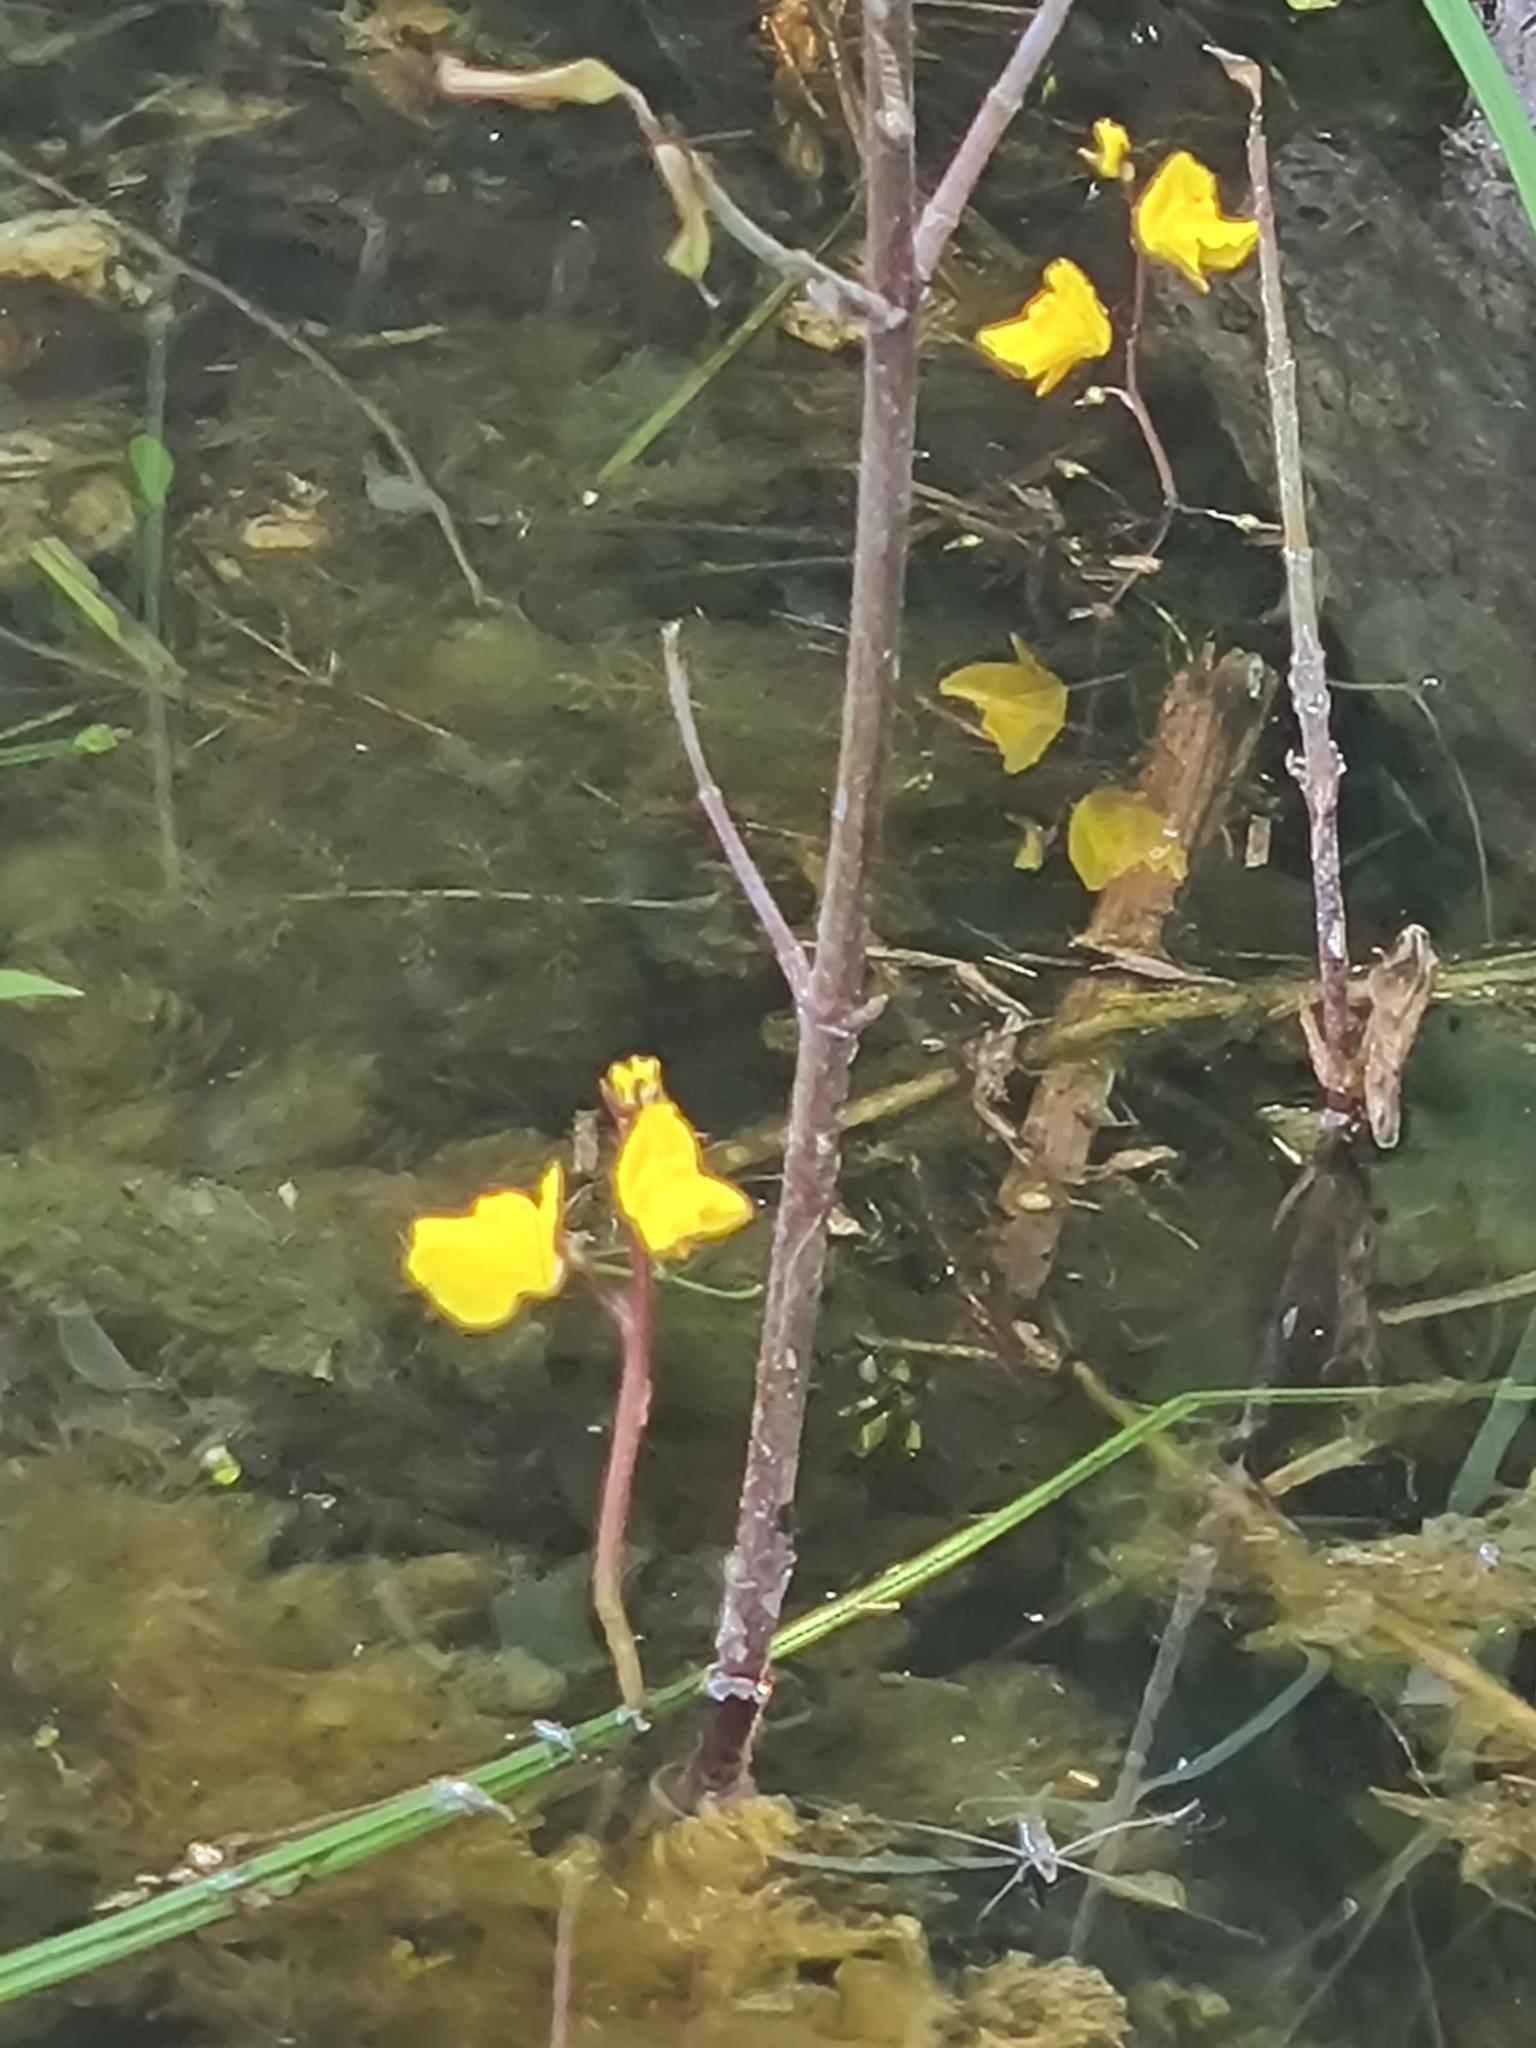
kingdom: Plantae
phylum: Tracheophyta
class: Magnoliopsida
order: Lamiales
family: Lentibulariaceae
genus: Utricularia
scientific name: Utricularia vulgaris
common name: Greater bladderwort
